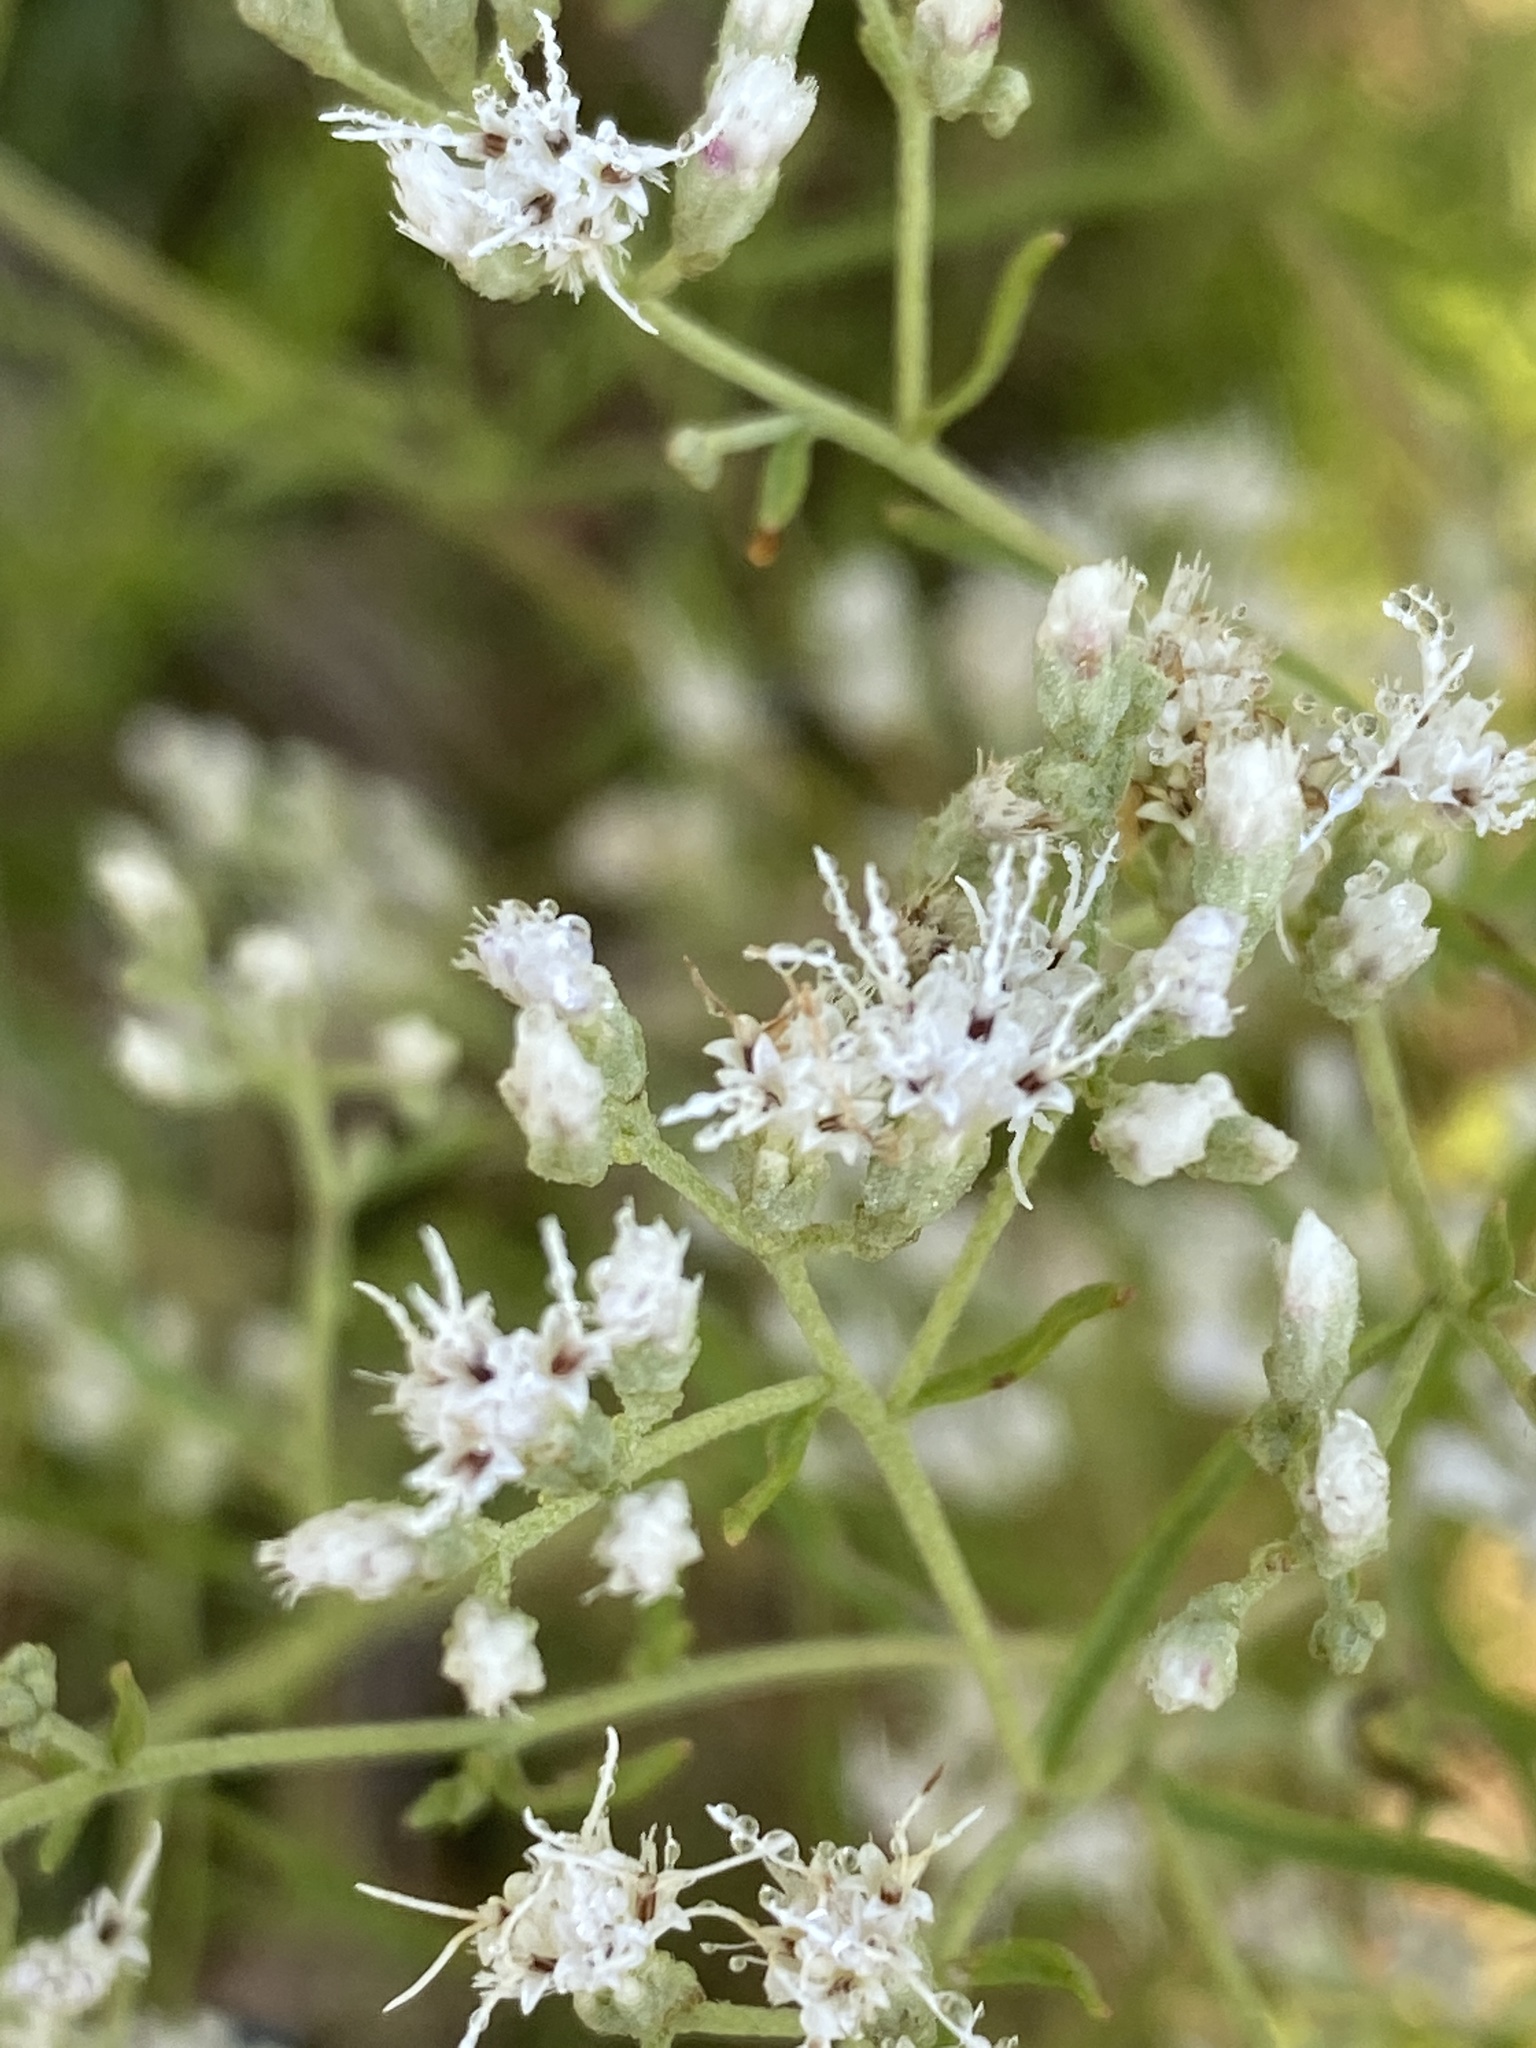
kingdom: Plantae
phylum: Tracheophyta
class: Magnoliopsida
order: Asterales
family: Asteraceae
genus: Eupatorium
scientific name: Eupatorium hyssopifolium
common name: Hyssop-leaf thoroughwort
